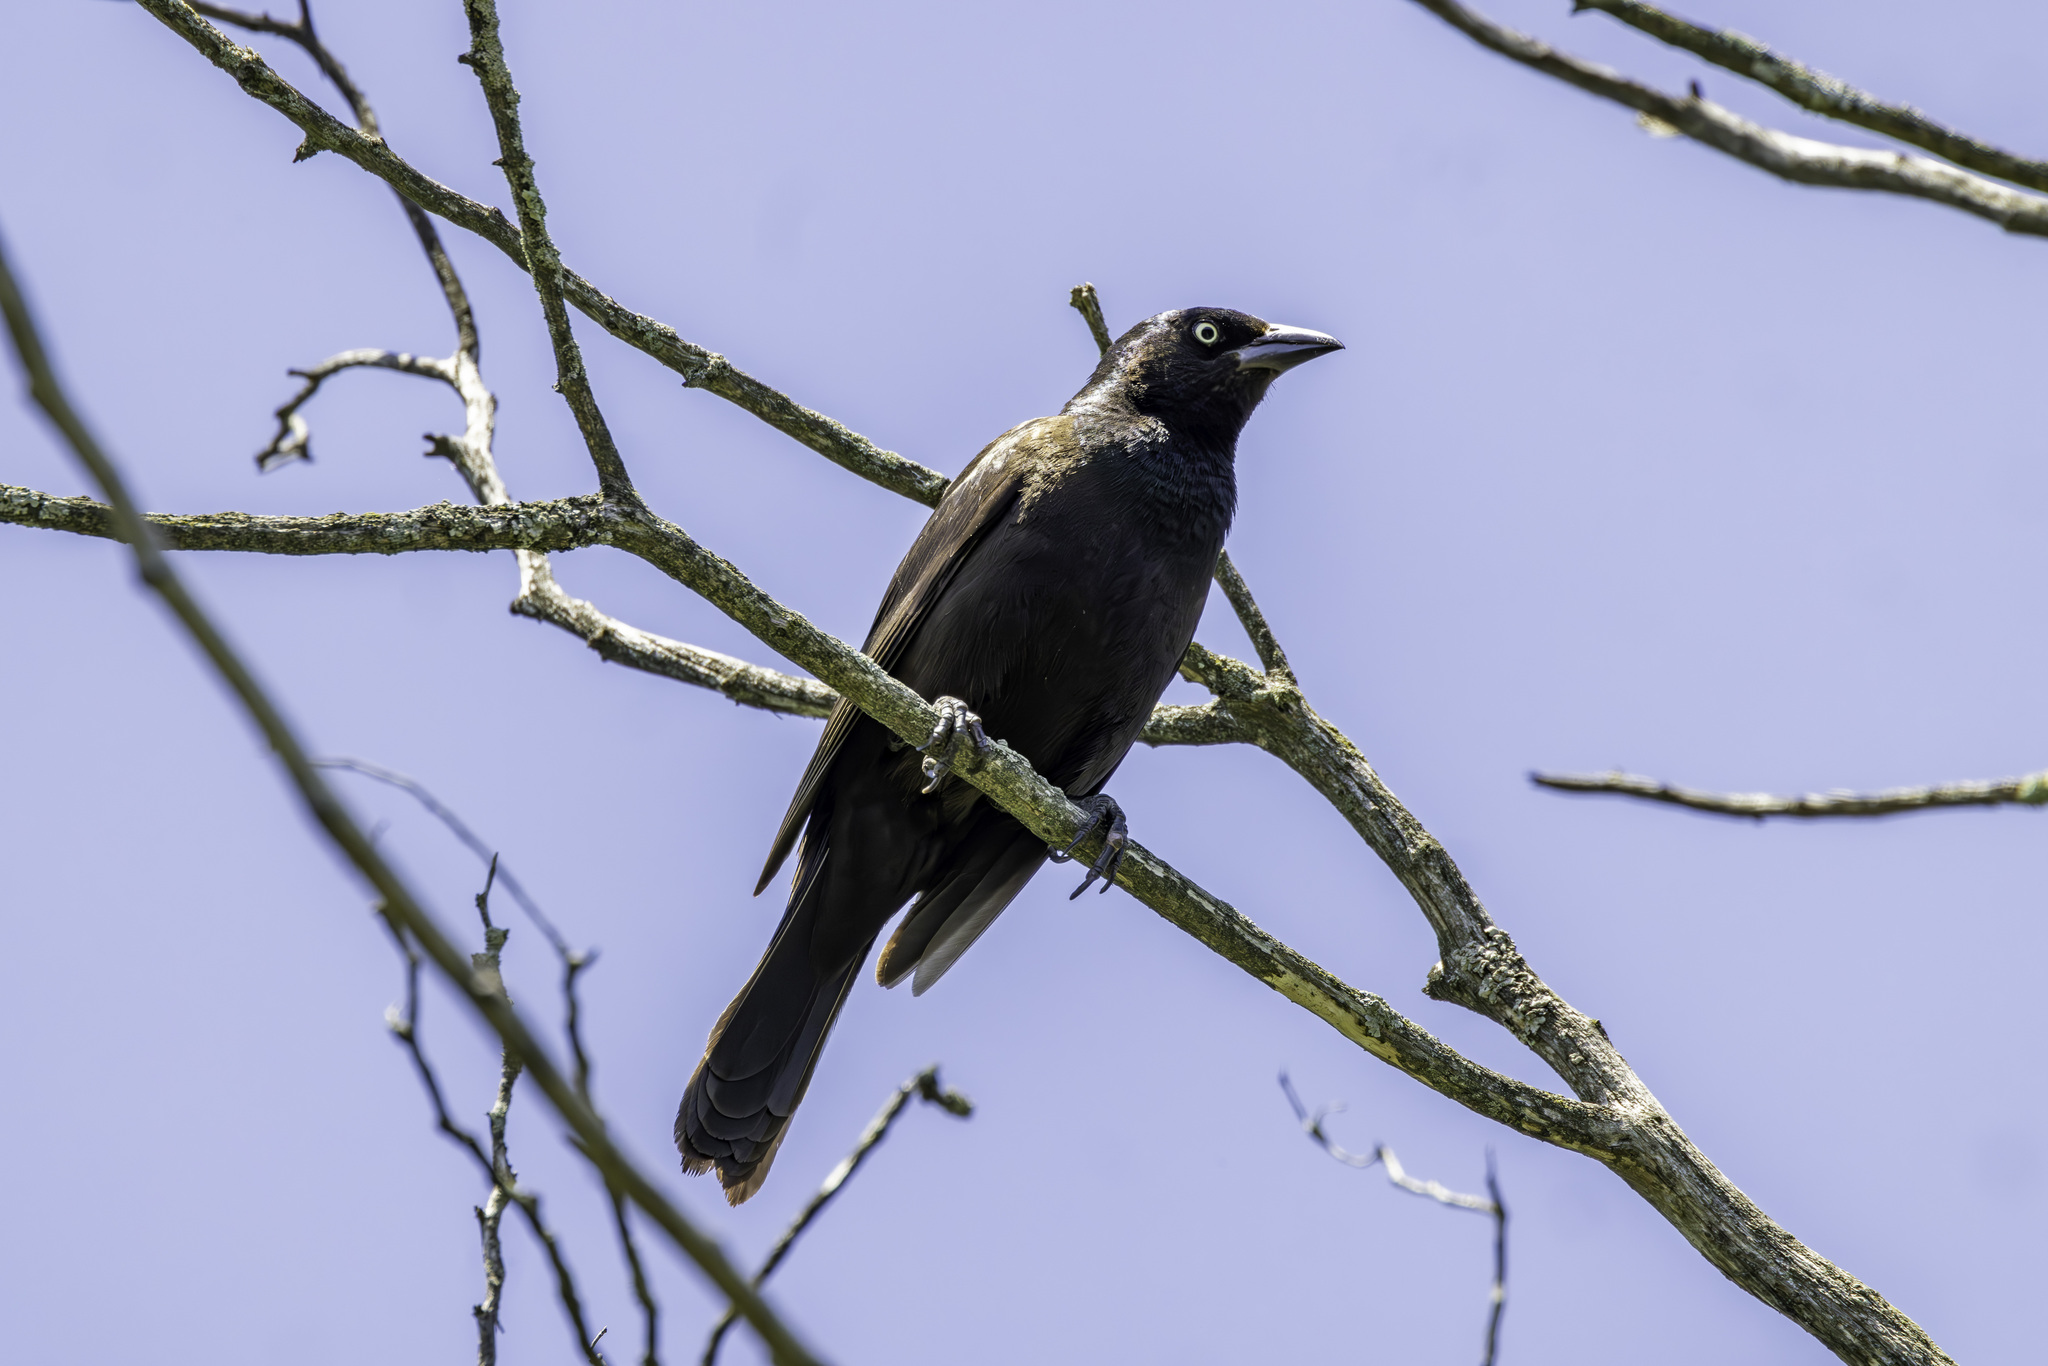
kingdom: Animalia
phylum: Chordata
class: Aves
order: Passeriformes
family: Icteridae
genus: Quiscalus
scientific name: Quiscalus quiscula
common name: Common grackle
